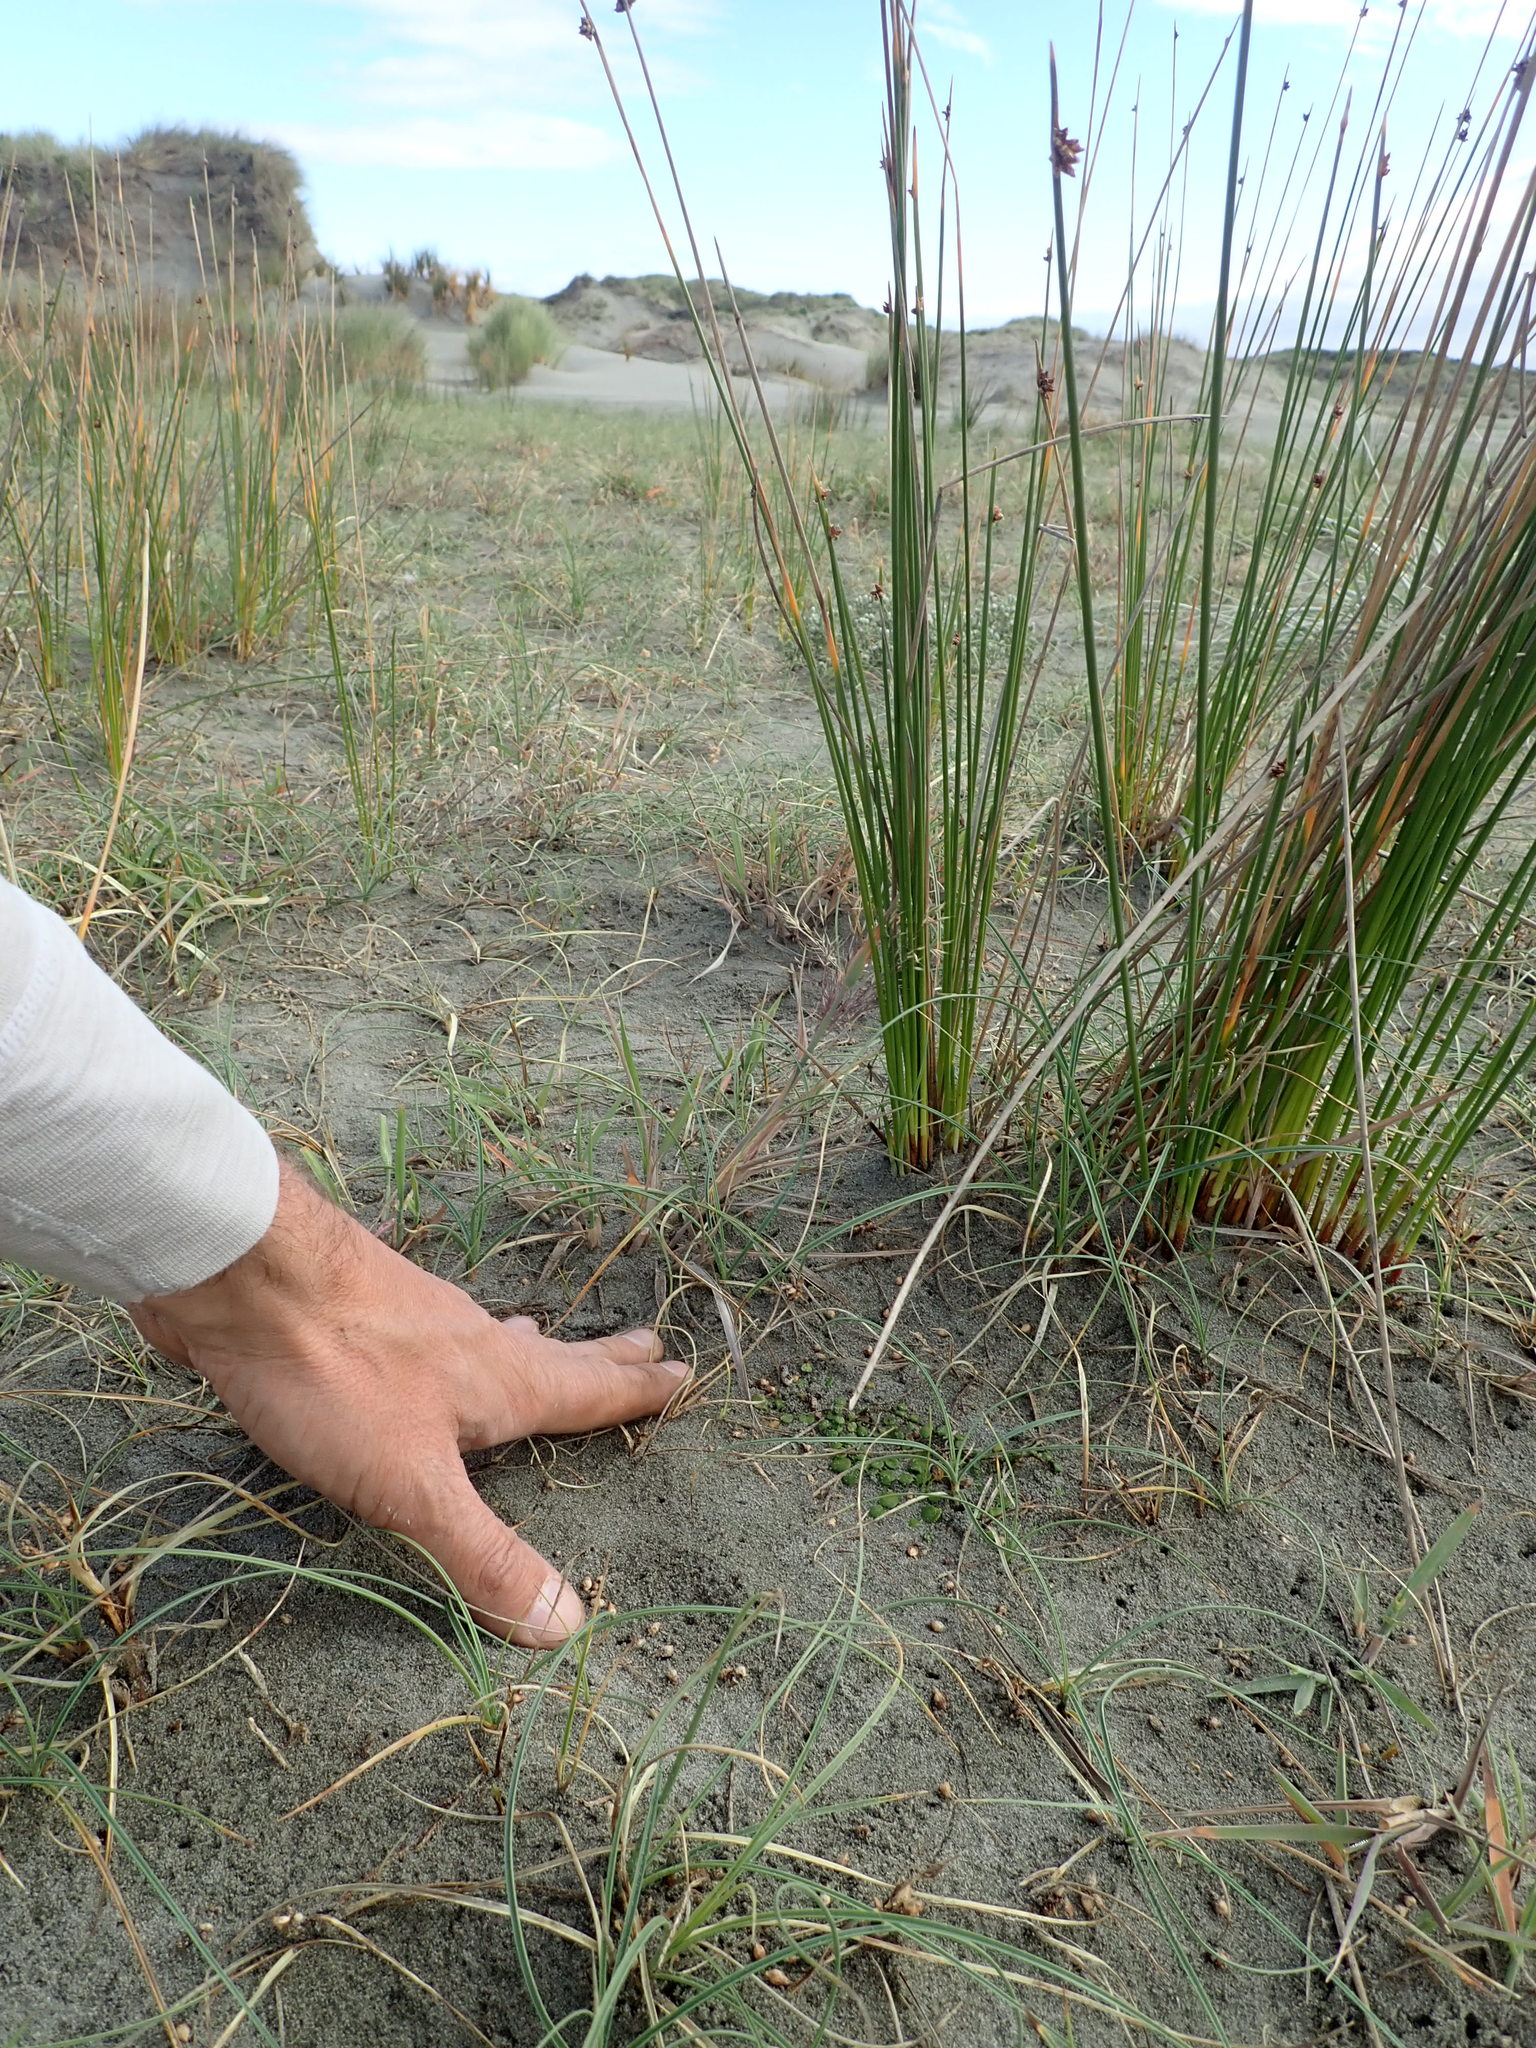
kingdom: Plantae
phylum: Tracheophyta
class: Magnoliopsida
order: Asterales
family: Goodeniaceae
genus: Goodenia
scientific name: Goodenia heenanii
